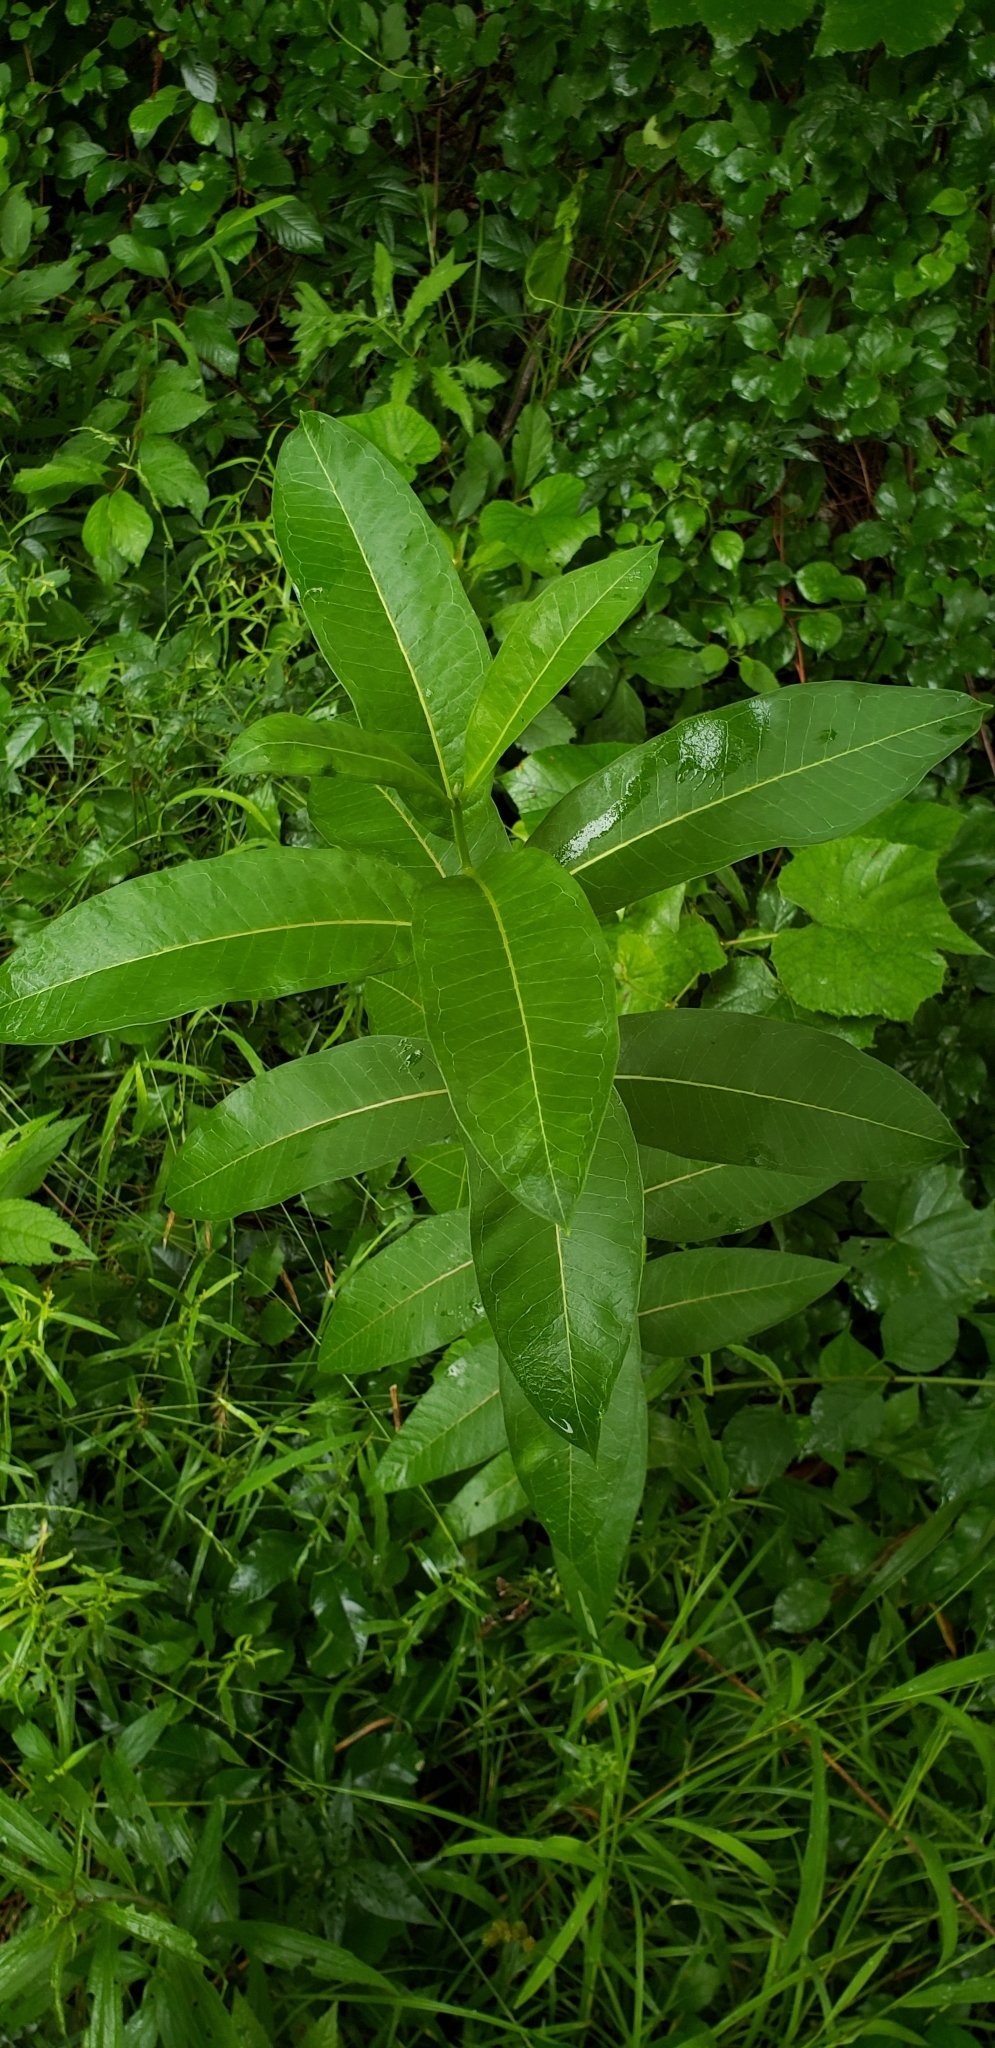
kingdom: Plantae
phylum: Tracheophyta
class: Magnoliopsida
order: Gentianales
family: Apocynaceae
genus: Asclepias
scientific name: Asclepias syriaca
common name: Common milkweed
